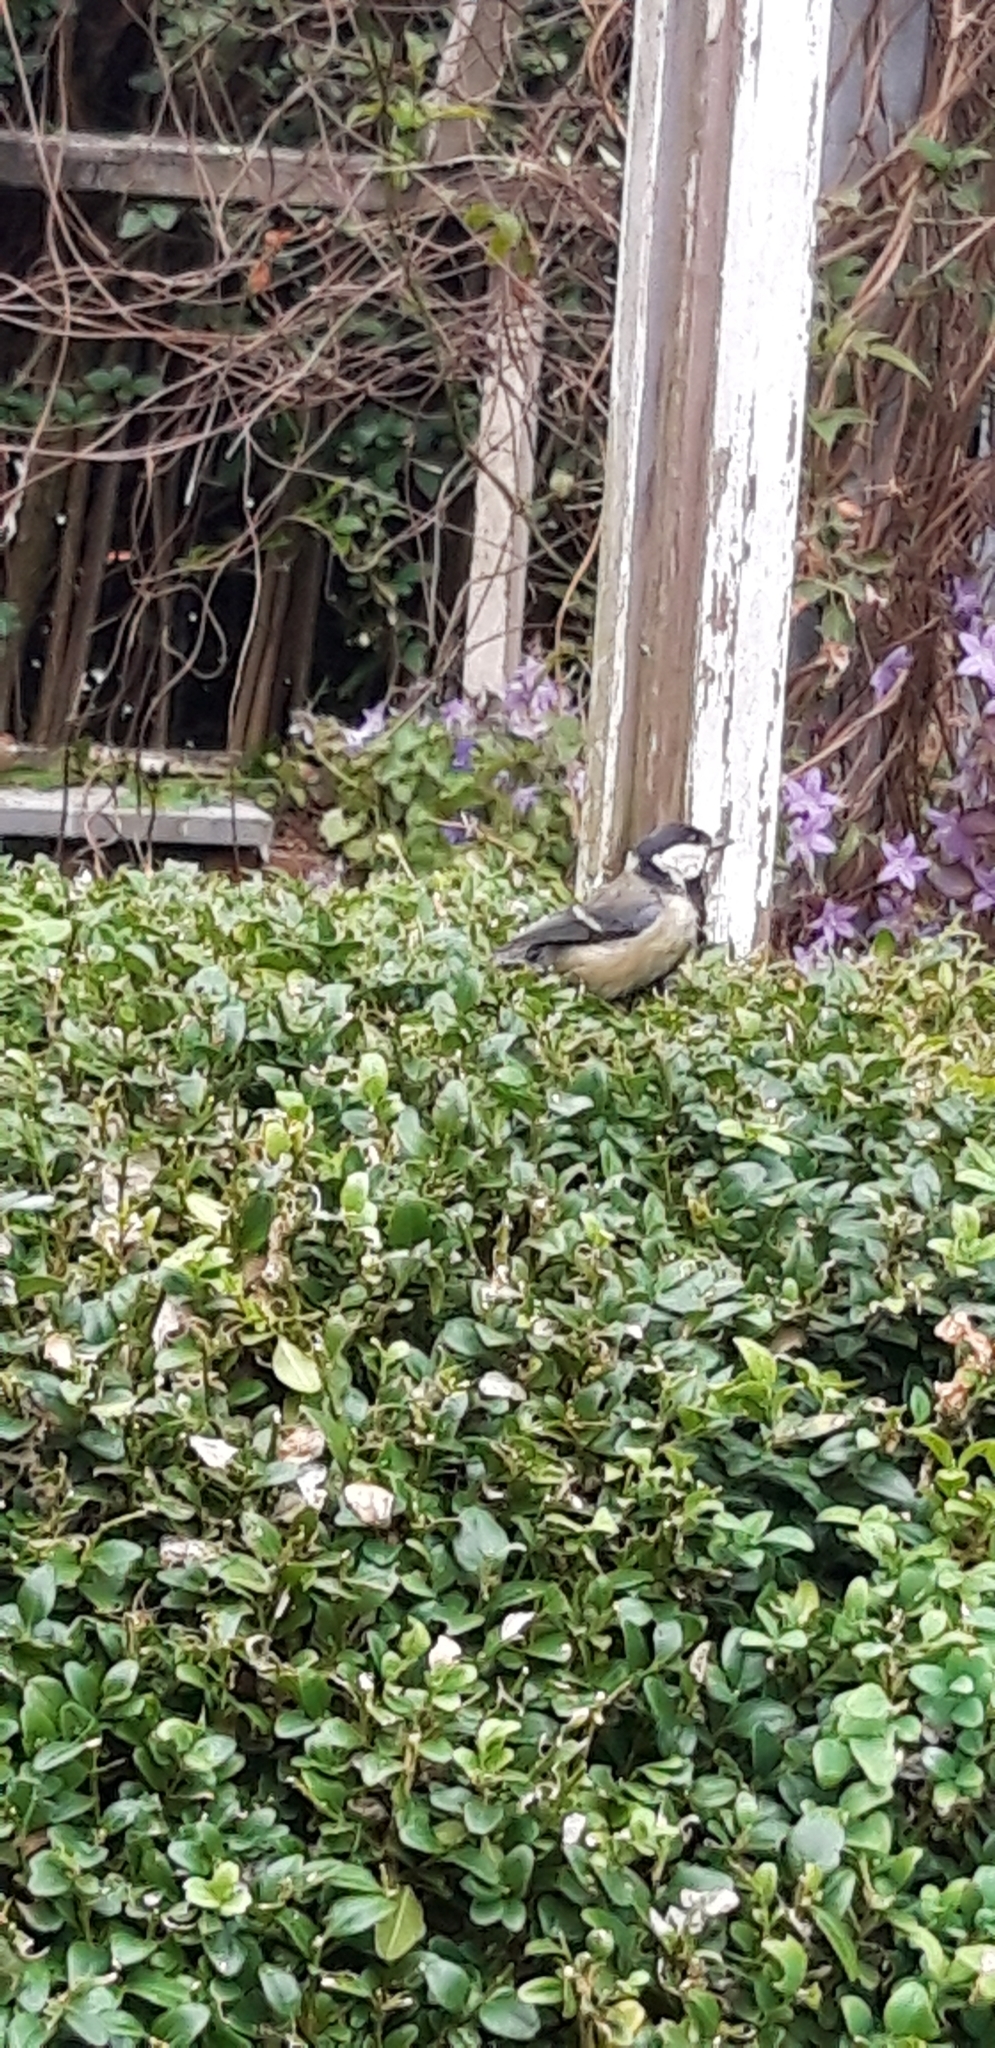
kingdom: Animalia
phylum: Chordata
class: Aves
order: Passeriformes
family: Paridae
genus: Parus
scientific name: Parus major
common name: Great tit
